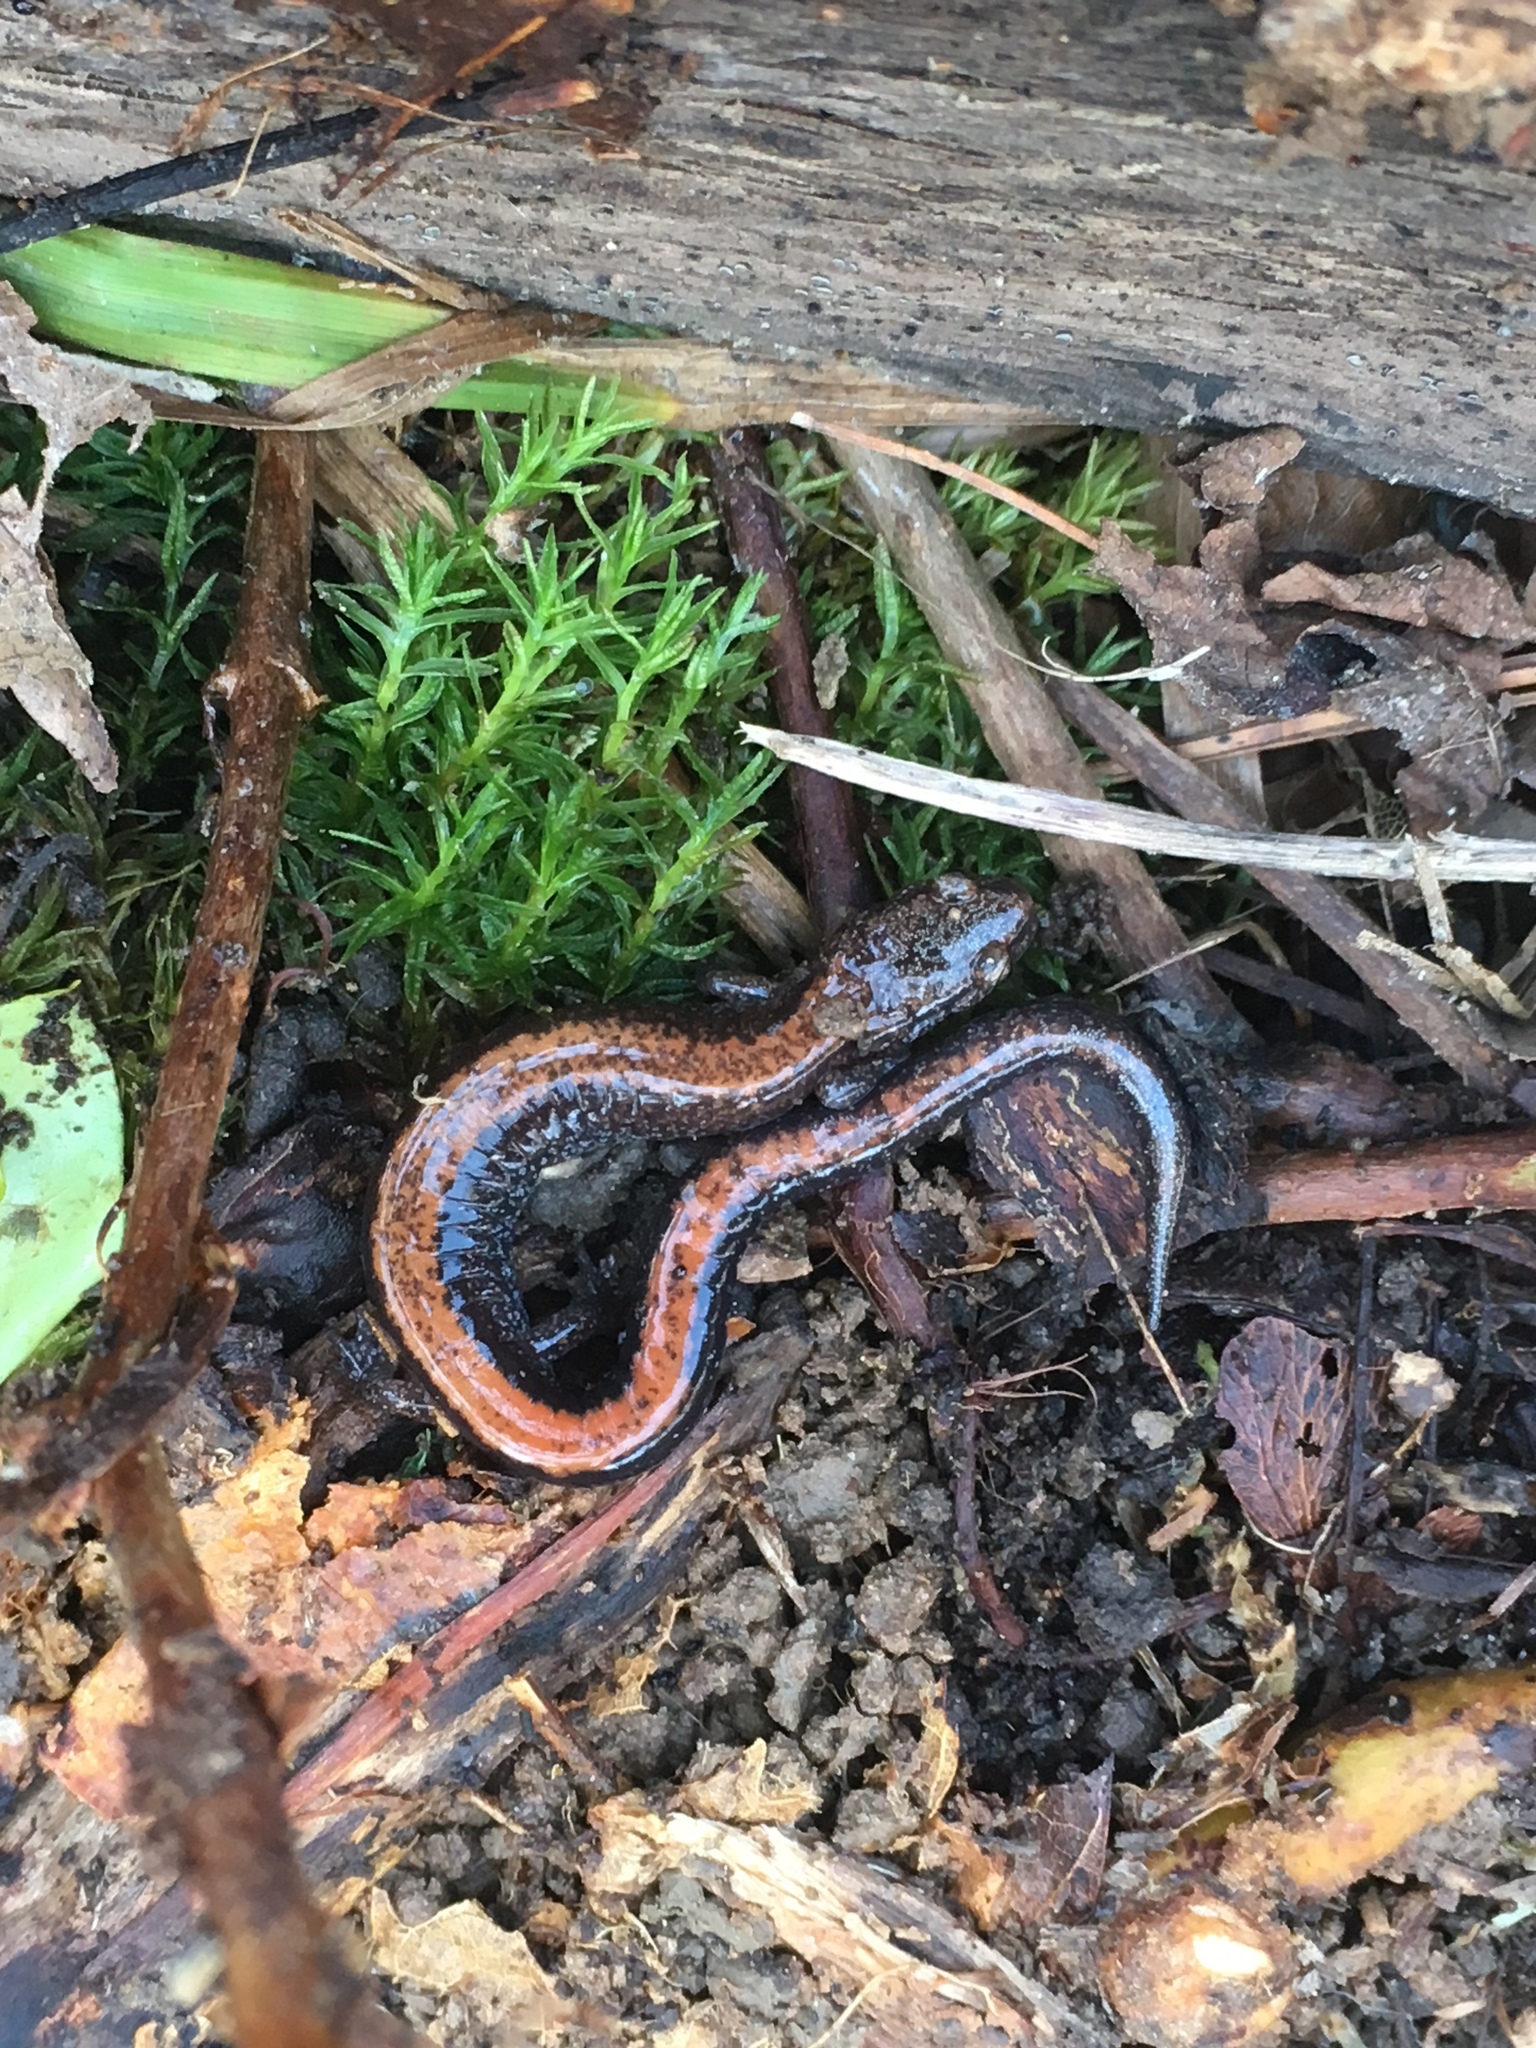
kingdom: Animalia
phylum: Chordata
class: Amphibia
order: Caudata
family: Plethodontidae
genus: Plethodon
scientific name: Plethodon cinereus
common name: Redback salamander
